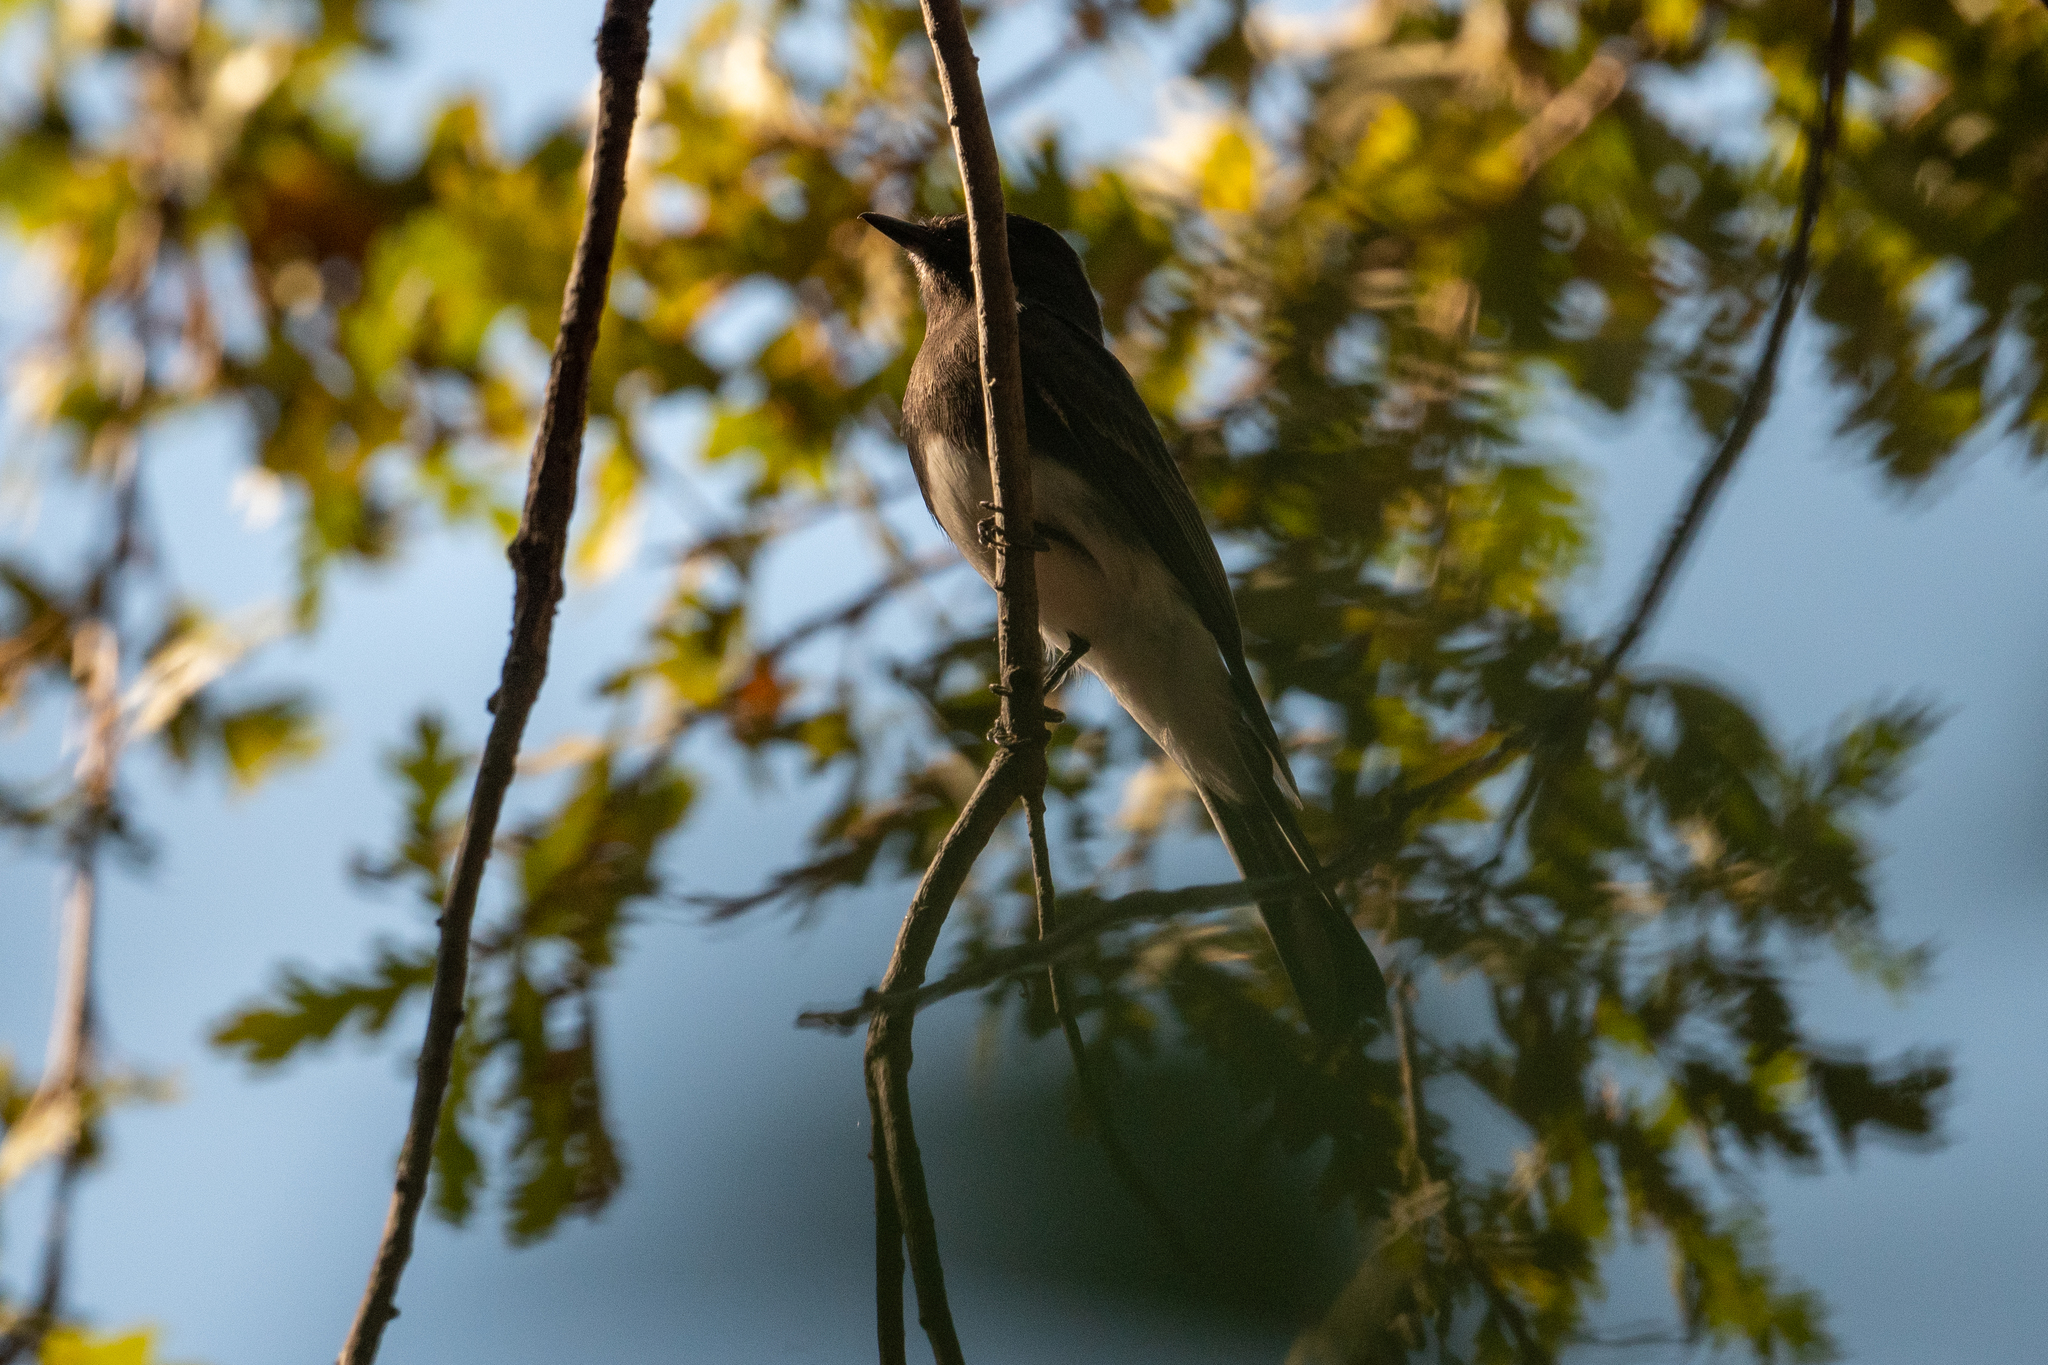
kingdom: Animalia
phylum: Chordata
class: Aves
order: Passeriformes
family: Tyrannidae
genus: Sayornis
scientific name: Sayornis nigricans
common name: Black phoebe
